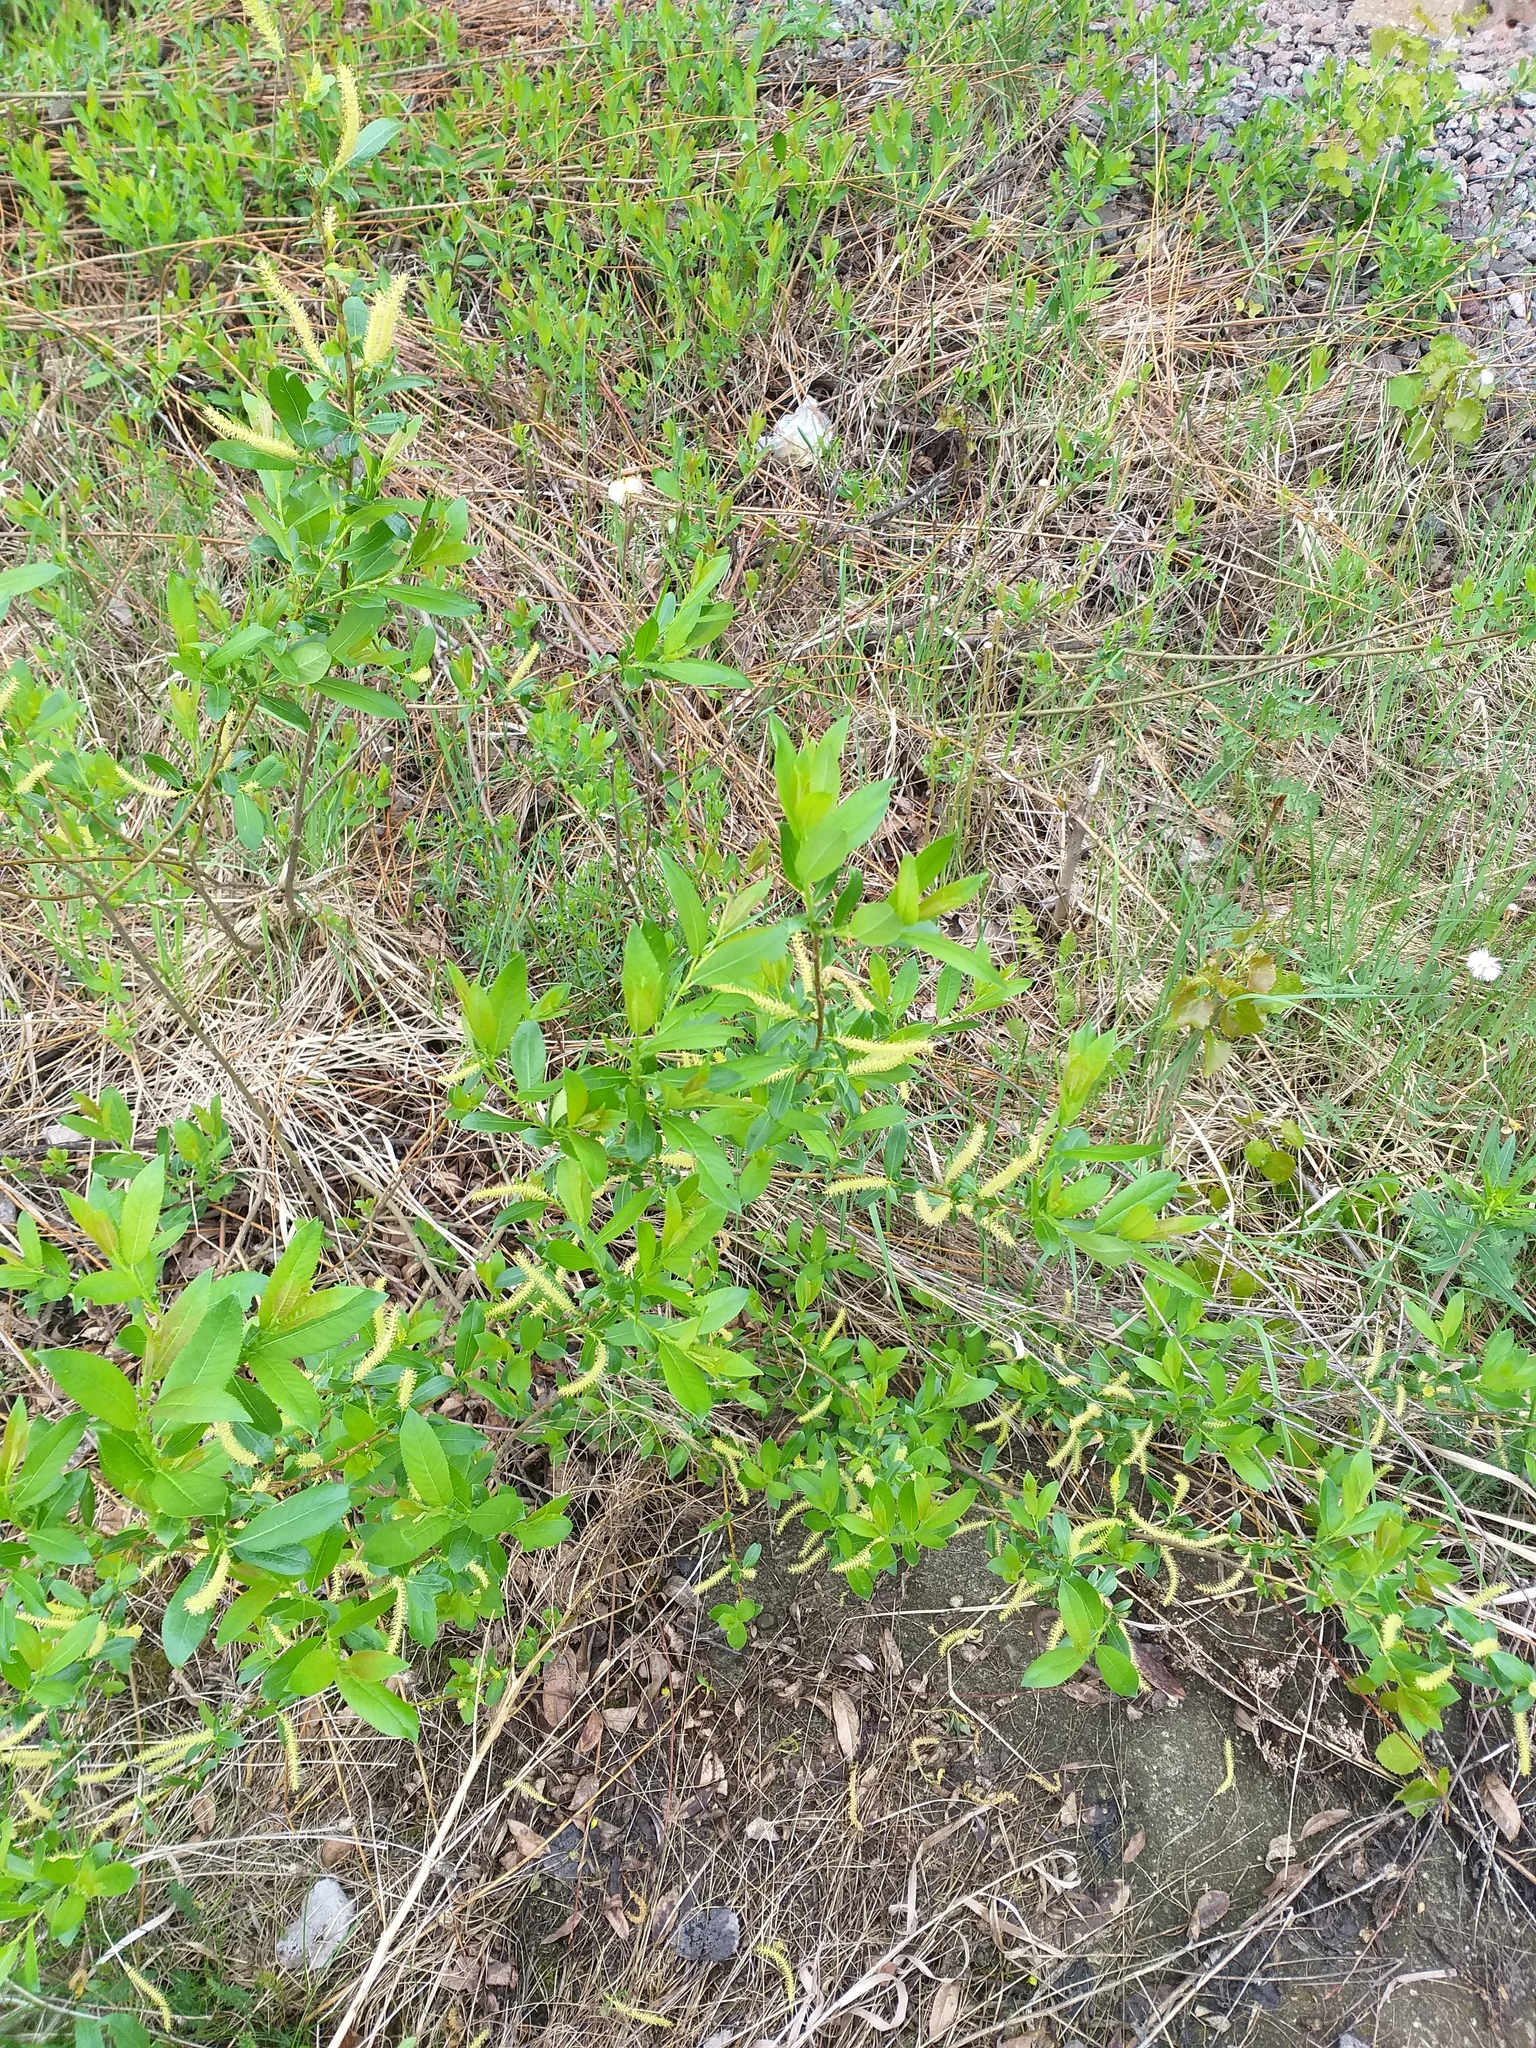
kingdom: Plantae
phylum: Tracheophyta
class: Magnoliopsida
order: Malpighiales
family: Salicaceae
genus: Salix
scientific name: Salix triandra
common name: Almond willow
